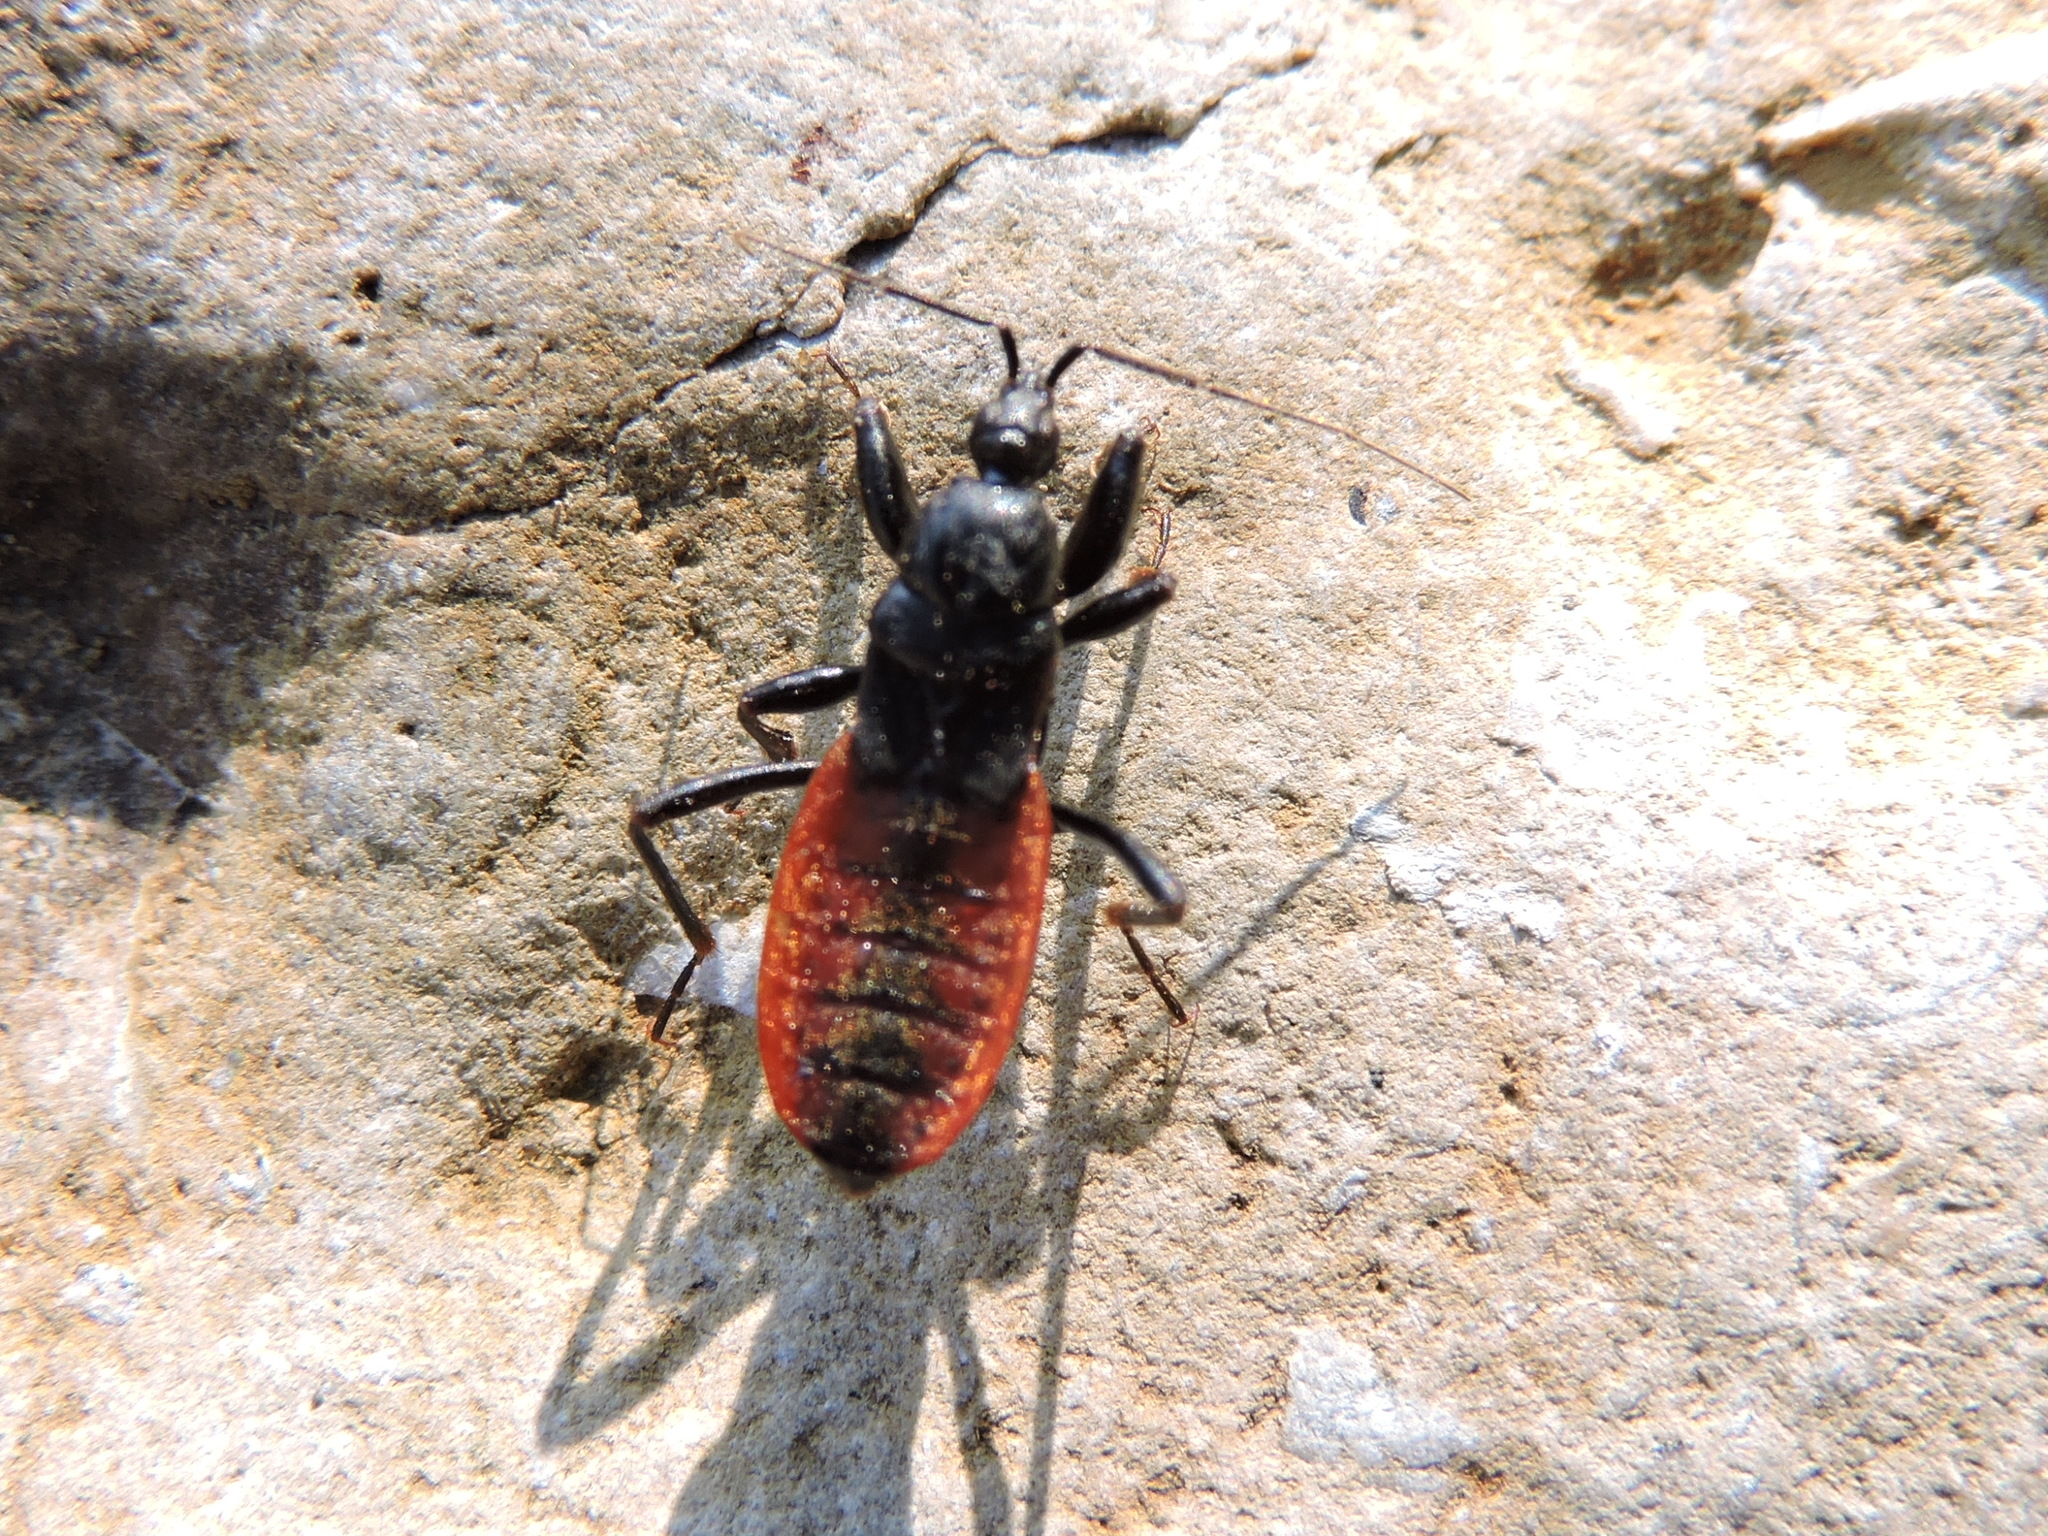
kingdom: Animalia
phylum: Arthropoda
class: Insecta
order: Hemiptera
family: Reduviidae
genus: Melanolestes
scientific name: Melanolestes picipes
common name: Assassin bug
